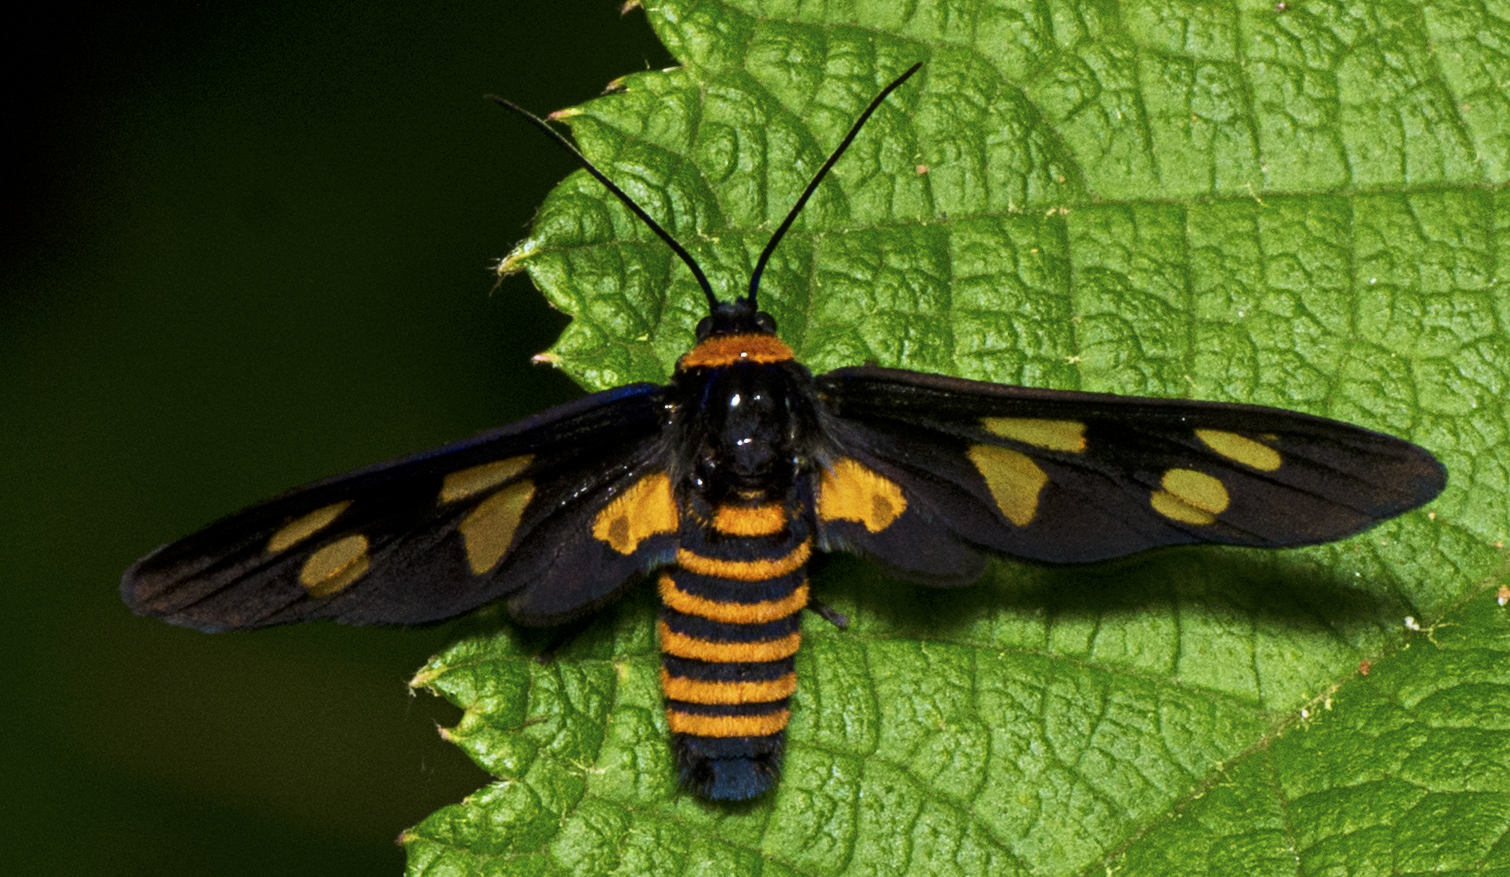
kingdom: Animalia
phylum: Arthropoda
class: Insecta
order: Lepidoptera
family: Erebidae
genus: Eressa
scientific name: Eressa angustipenna
